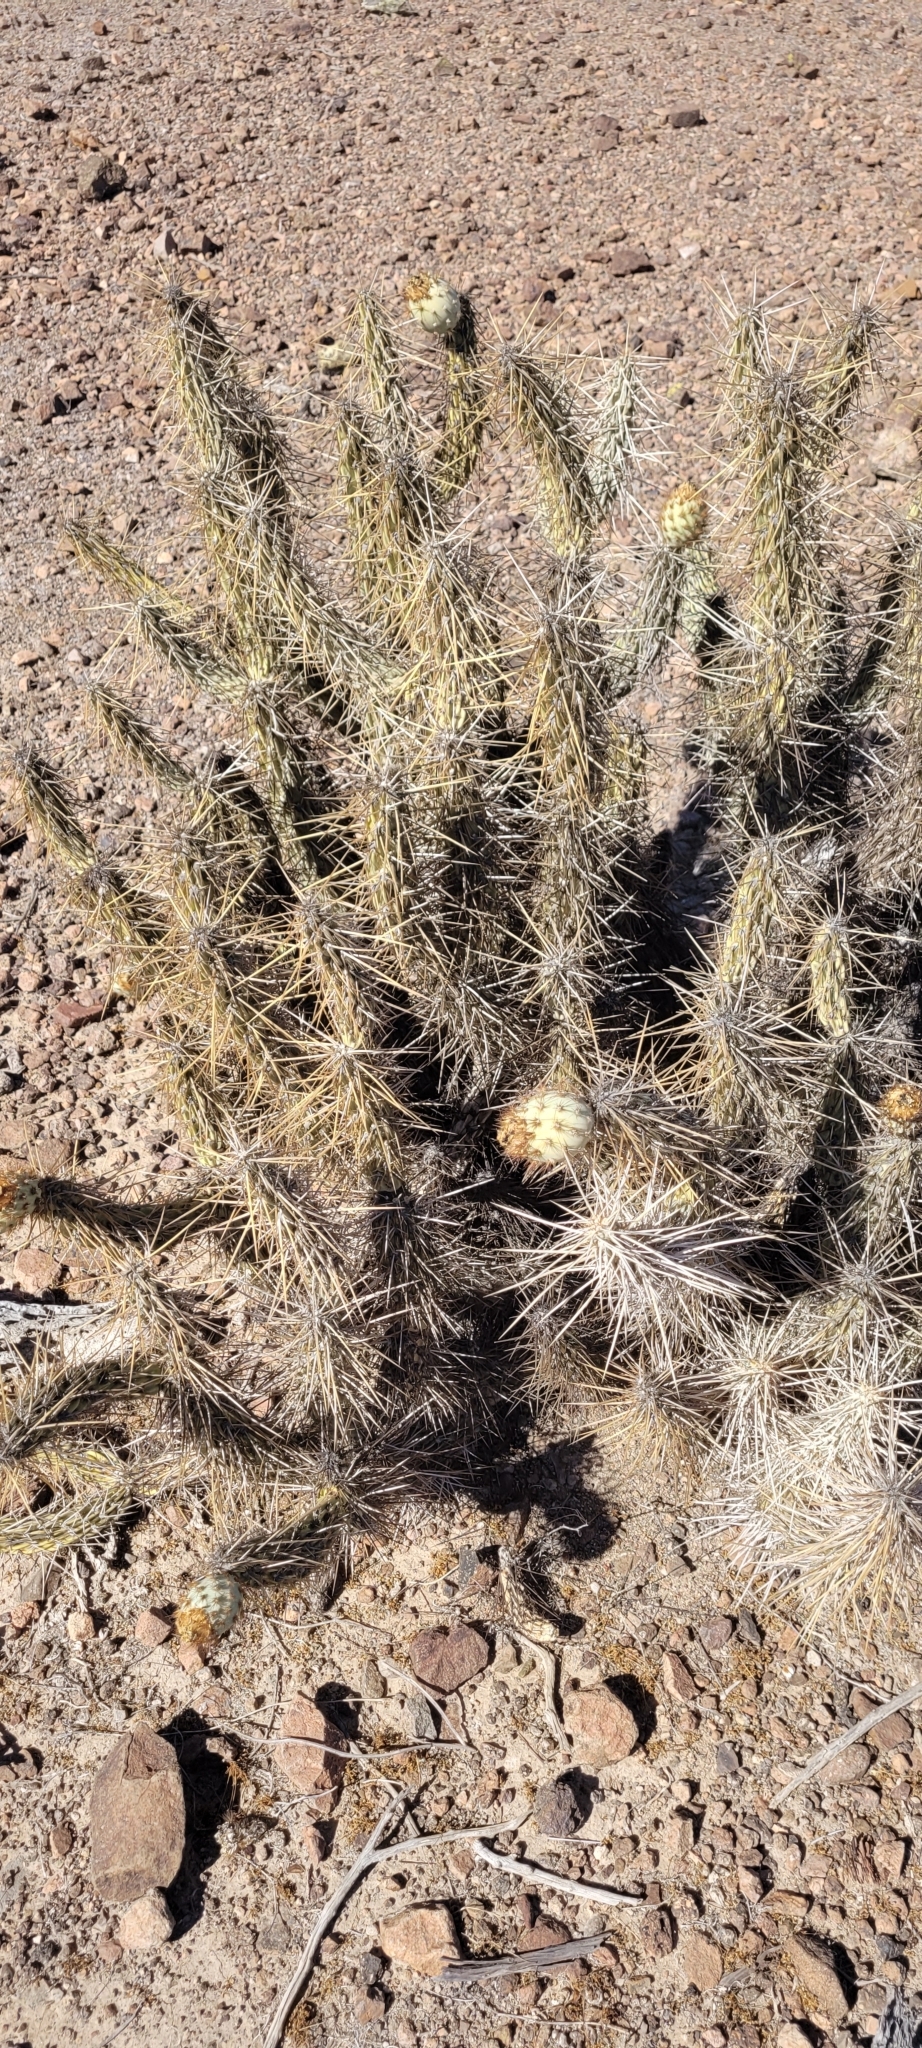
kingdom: Plantae
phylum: Tracheophyta
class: Magnoliopsida
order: Caryophyllales
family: Cactaceae
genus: Miqueliopuntia
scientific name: Miqueliopuntia miquelii
